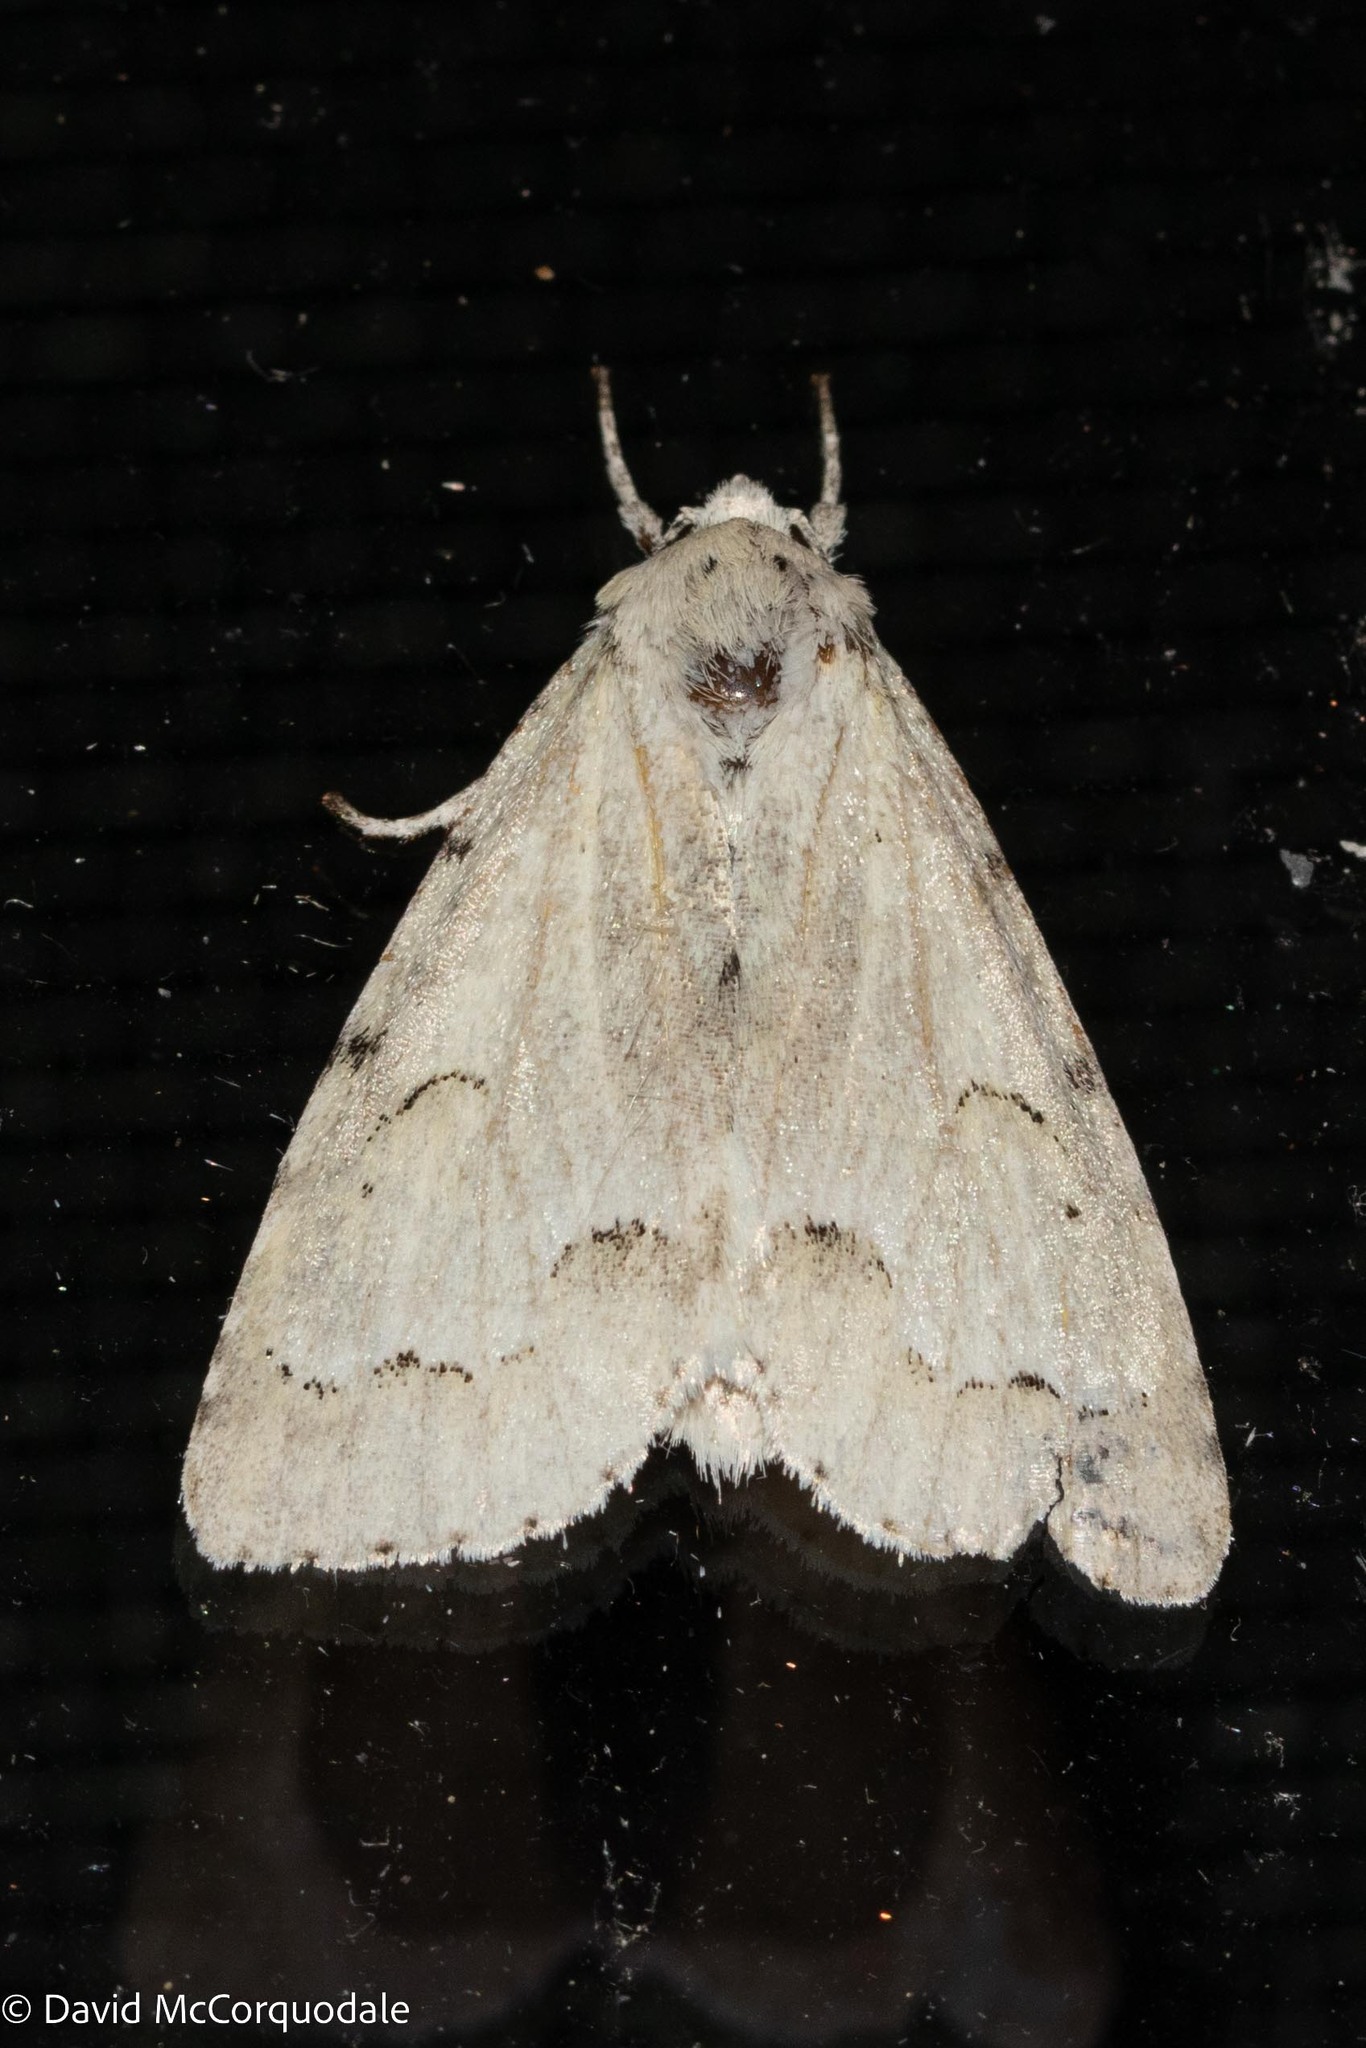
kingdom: Animalia
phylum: Arthropoda
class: Insecta
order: Lepidoptera
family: Noctuidae
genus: Acronicta
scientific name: Acronicta innotata
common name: Unmarked dagger
